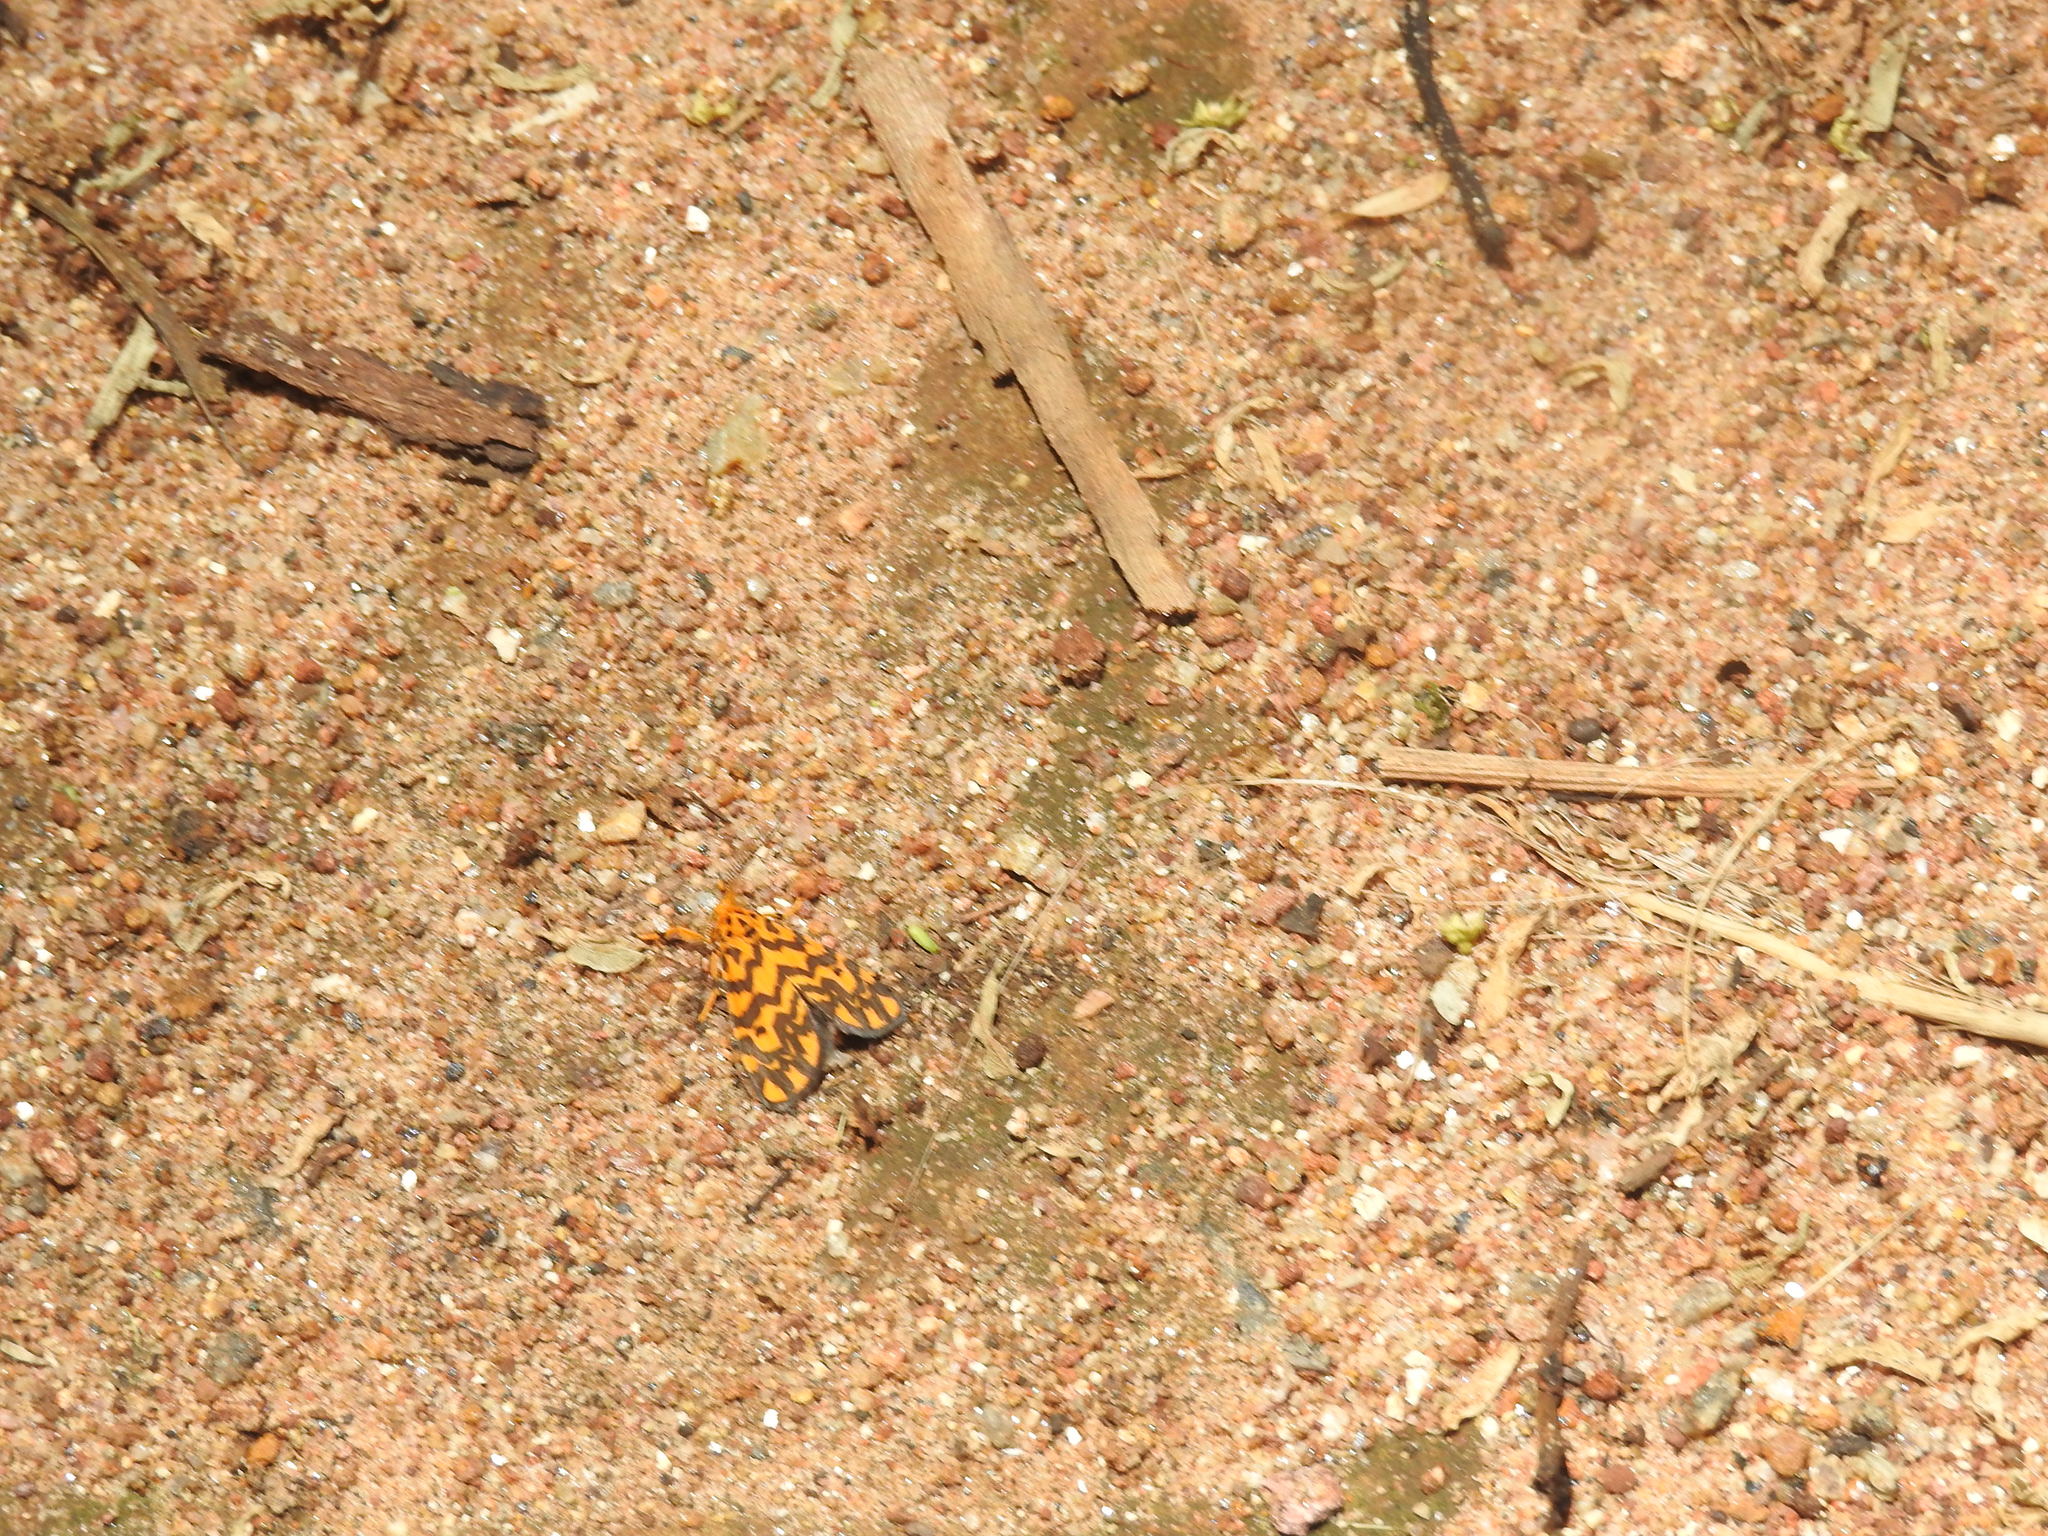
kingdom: Animalia
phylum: Arthropoda
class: Insecta
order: Lepidoptera
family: Erebidae
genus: Nepita
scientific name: Nepita conferta
